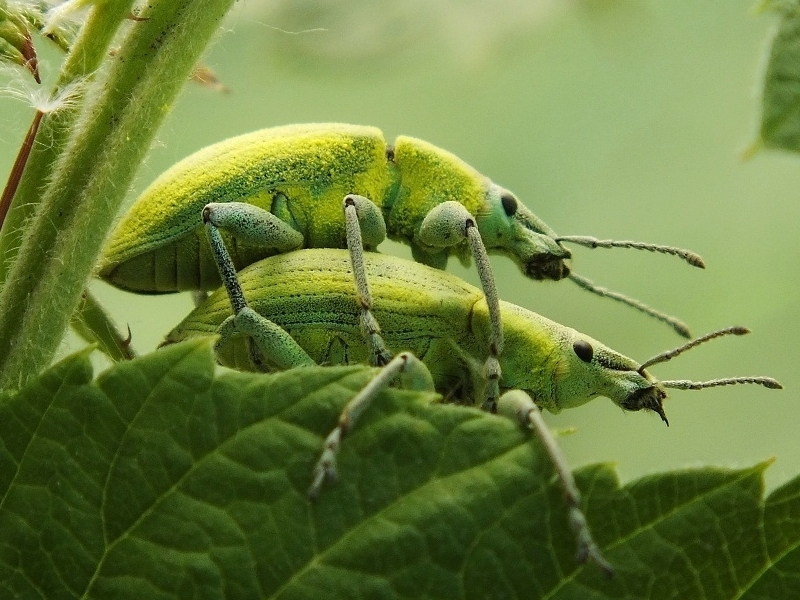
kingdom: Animalia
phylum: Arthropoda
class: Insecta
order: Coleoptera
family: Curculionidae
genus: Chlorophanus
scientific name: Chlorophanus micans
